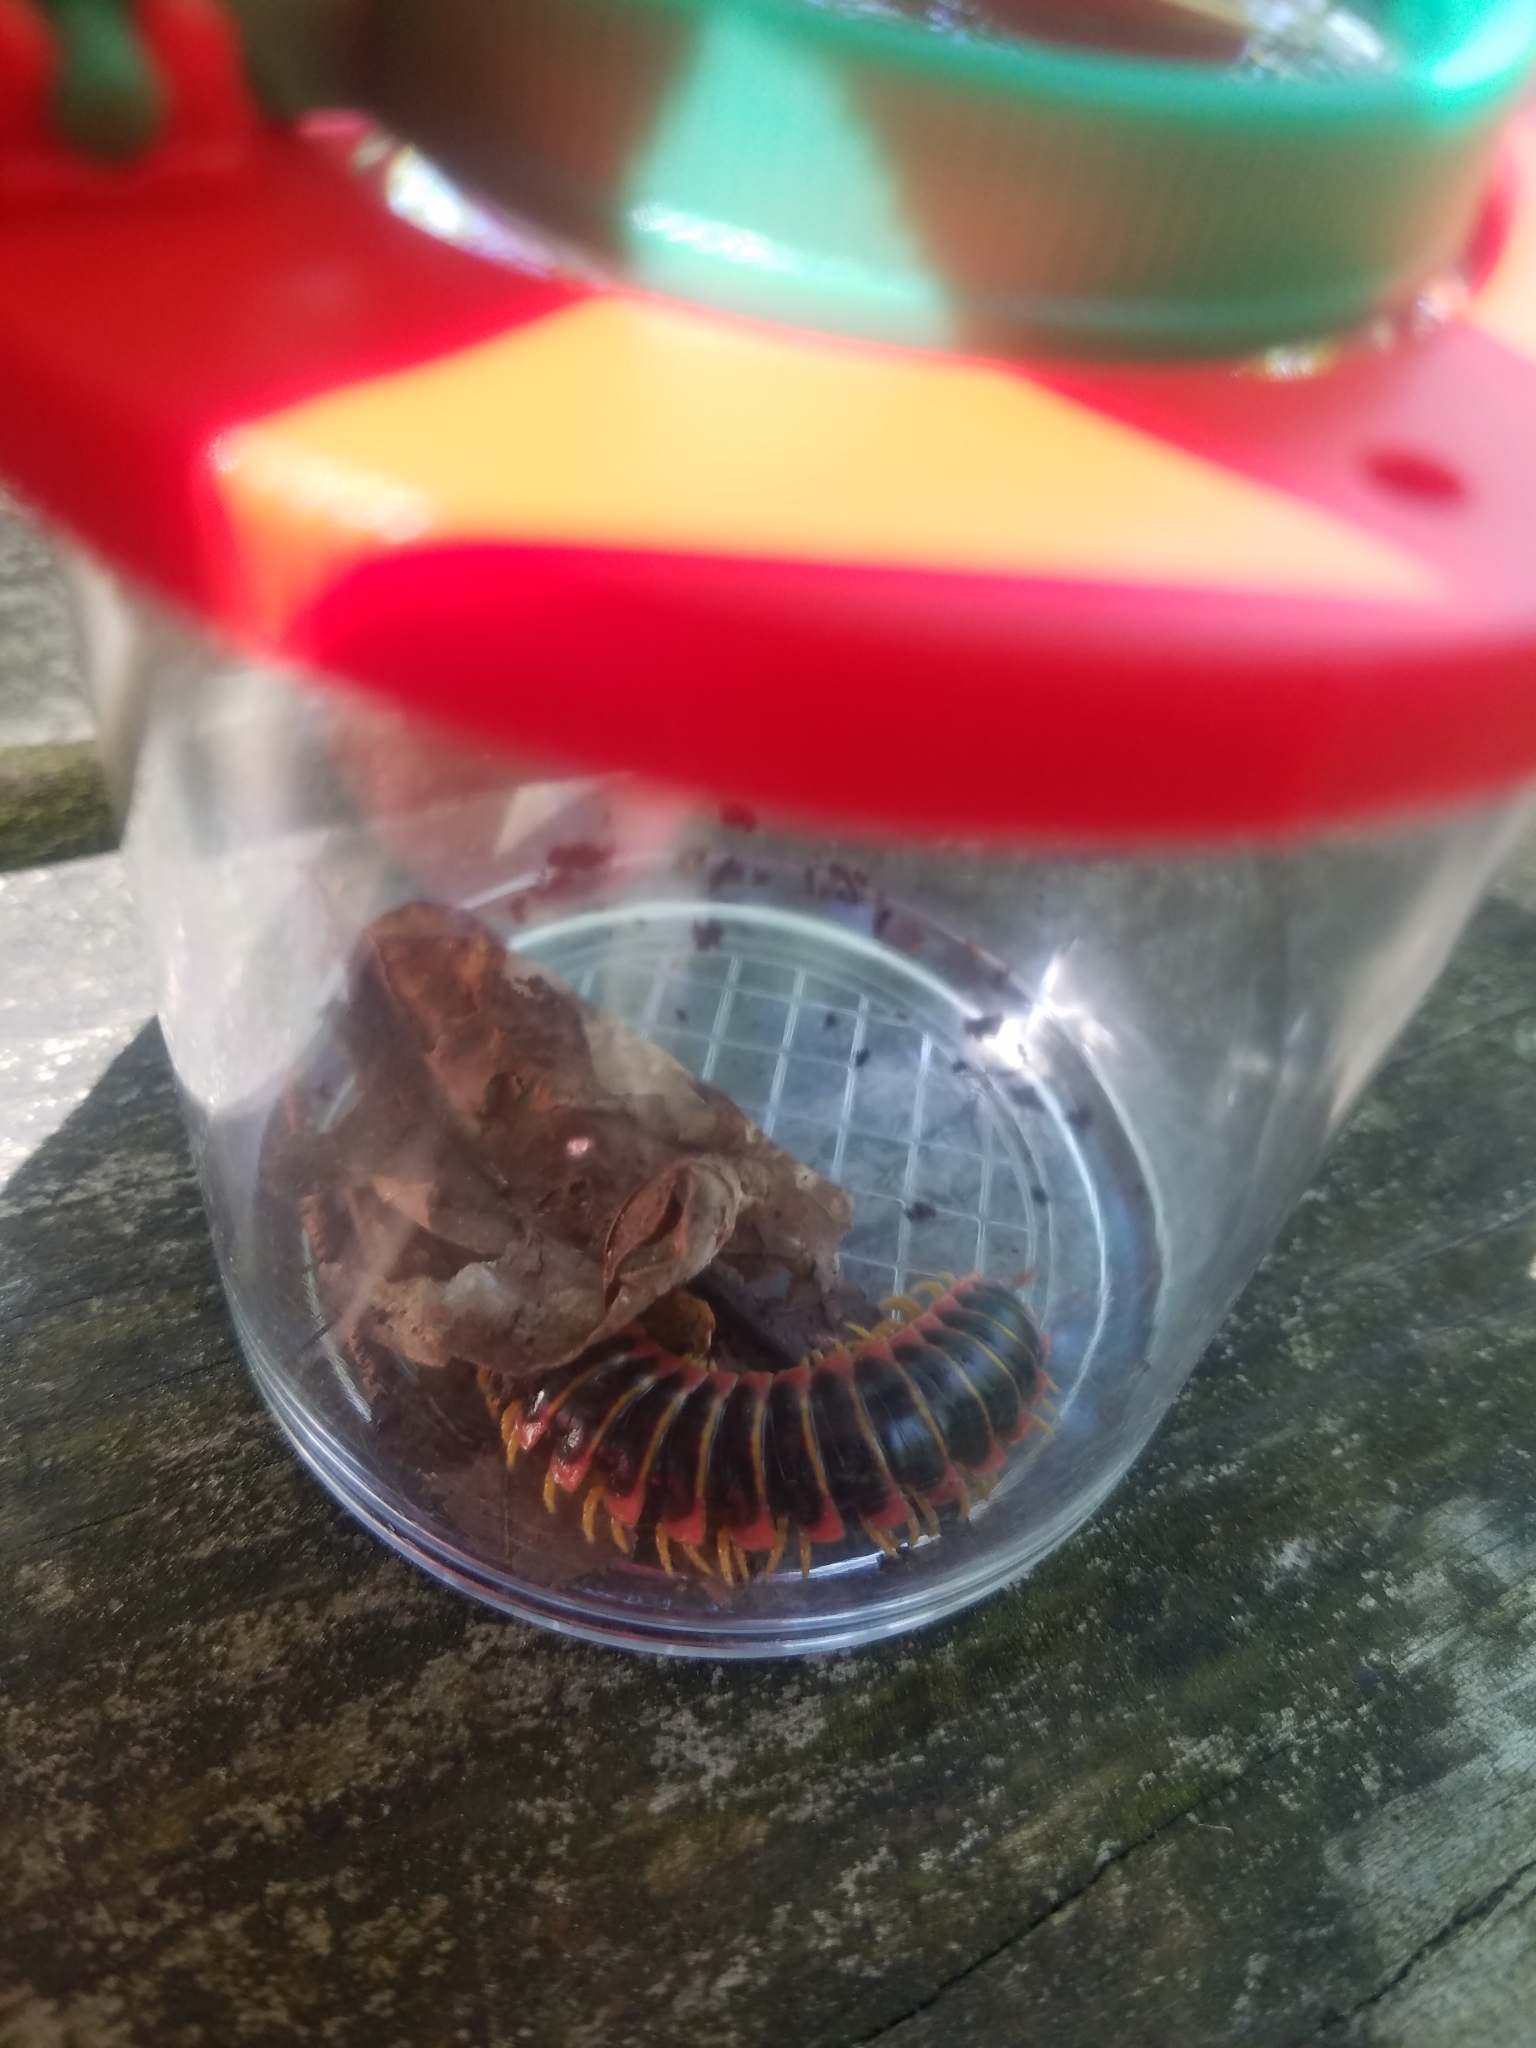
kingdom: Animalia
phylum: Arthropoda
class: Diplopoda
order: Polydesmida
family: Xystodesmidae
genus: Apheloria
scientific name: Apheloria virginiensis
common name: Black-and-gold flat millipede
